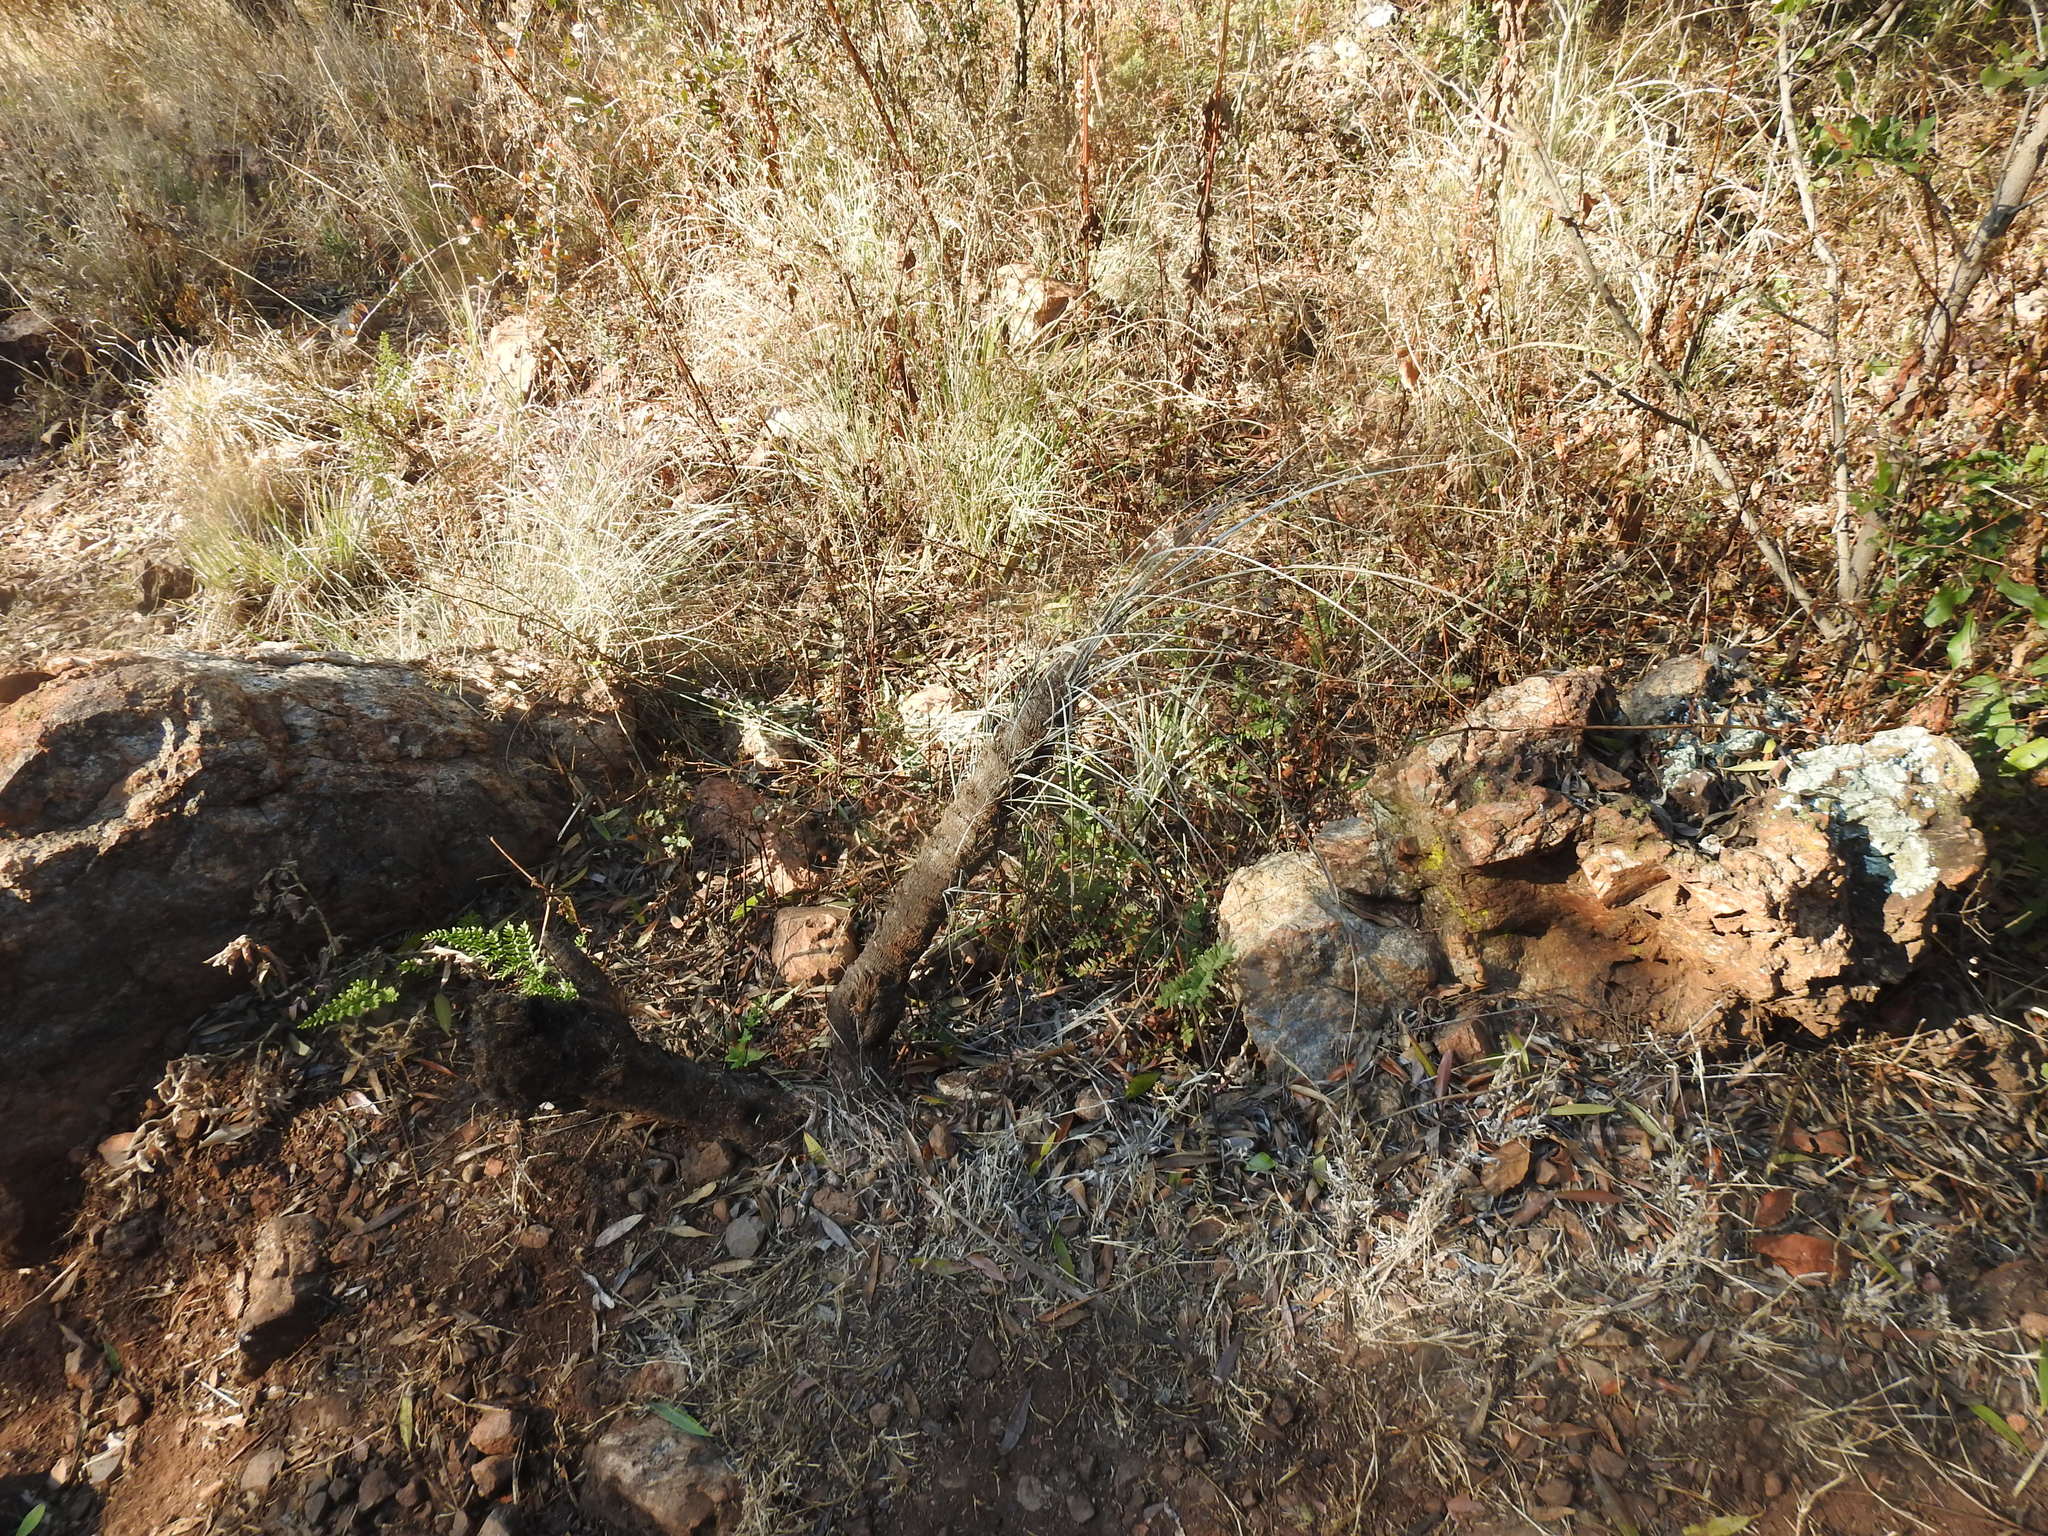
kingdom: Plantae
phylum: Tracheophyta
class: Liliopsida
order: Pandanales
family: Velloziaceae
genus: Xerophyta
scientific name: Xerophyta retinervis
